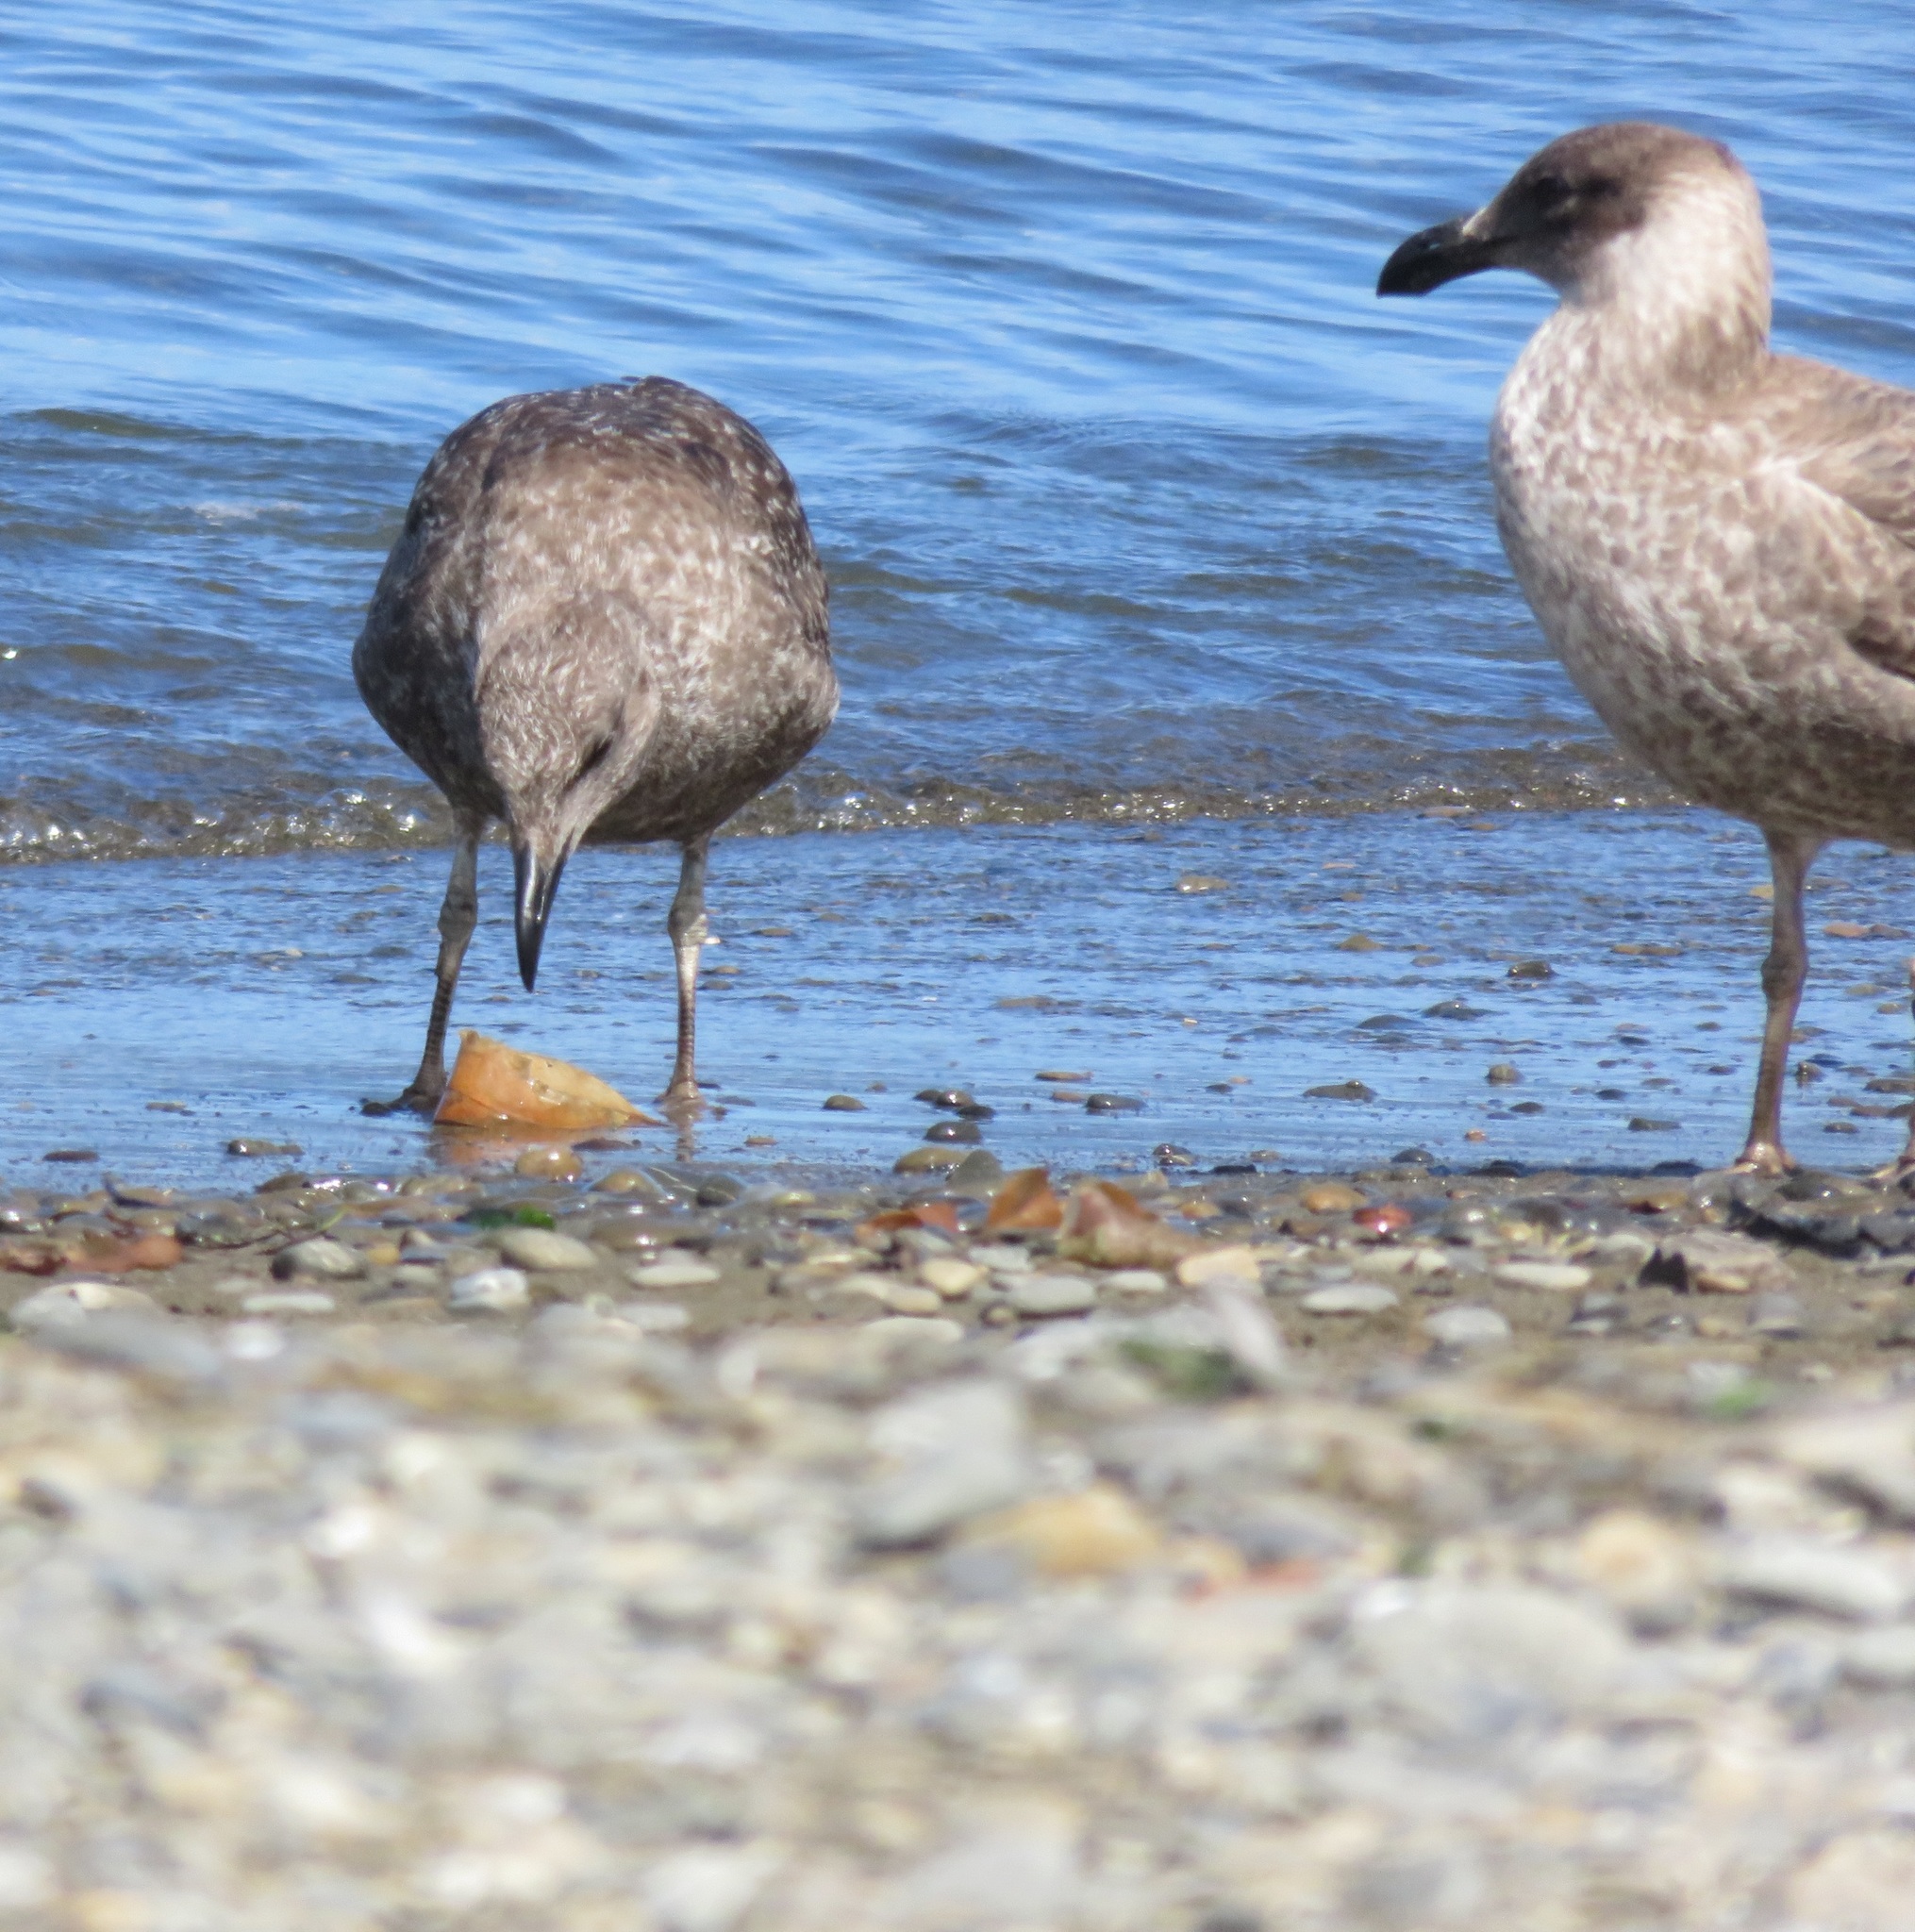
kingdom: Animalia
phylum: Chordata
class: Aves
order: Charadriiformes
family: Laridae
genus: Larus
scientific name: Larus dominicanus
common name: Kelp gull
